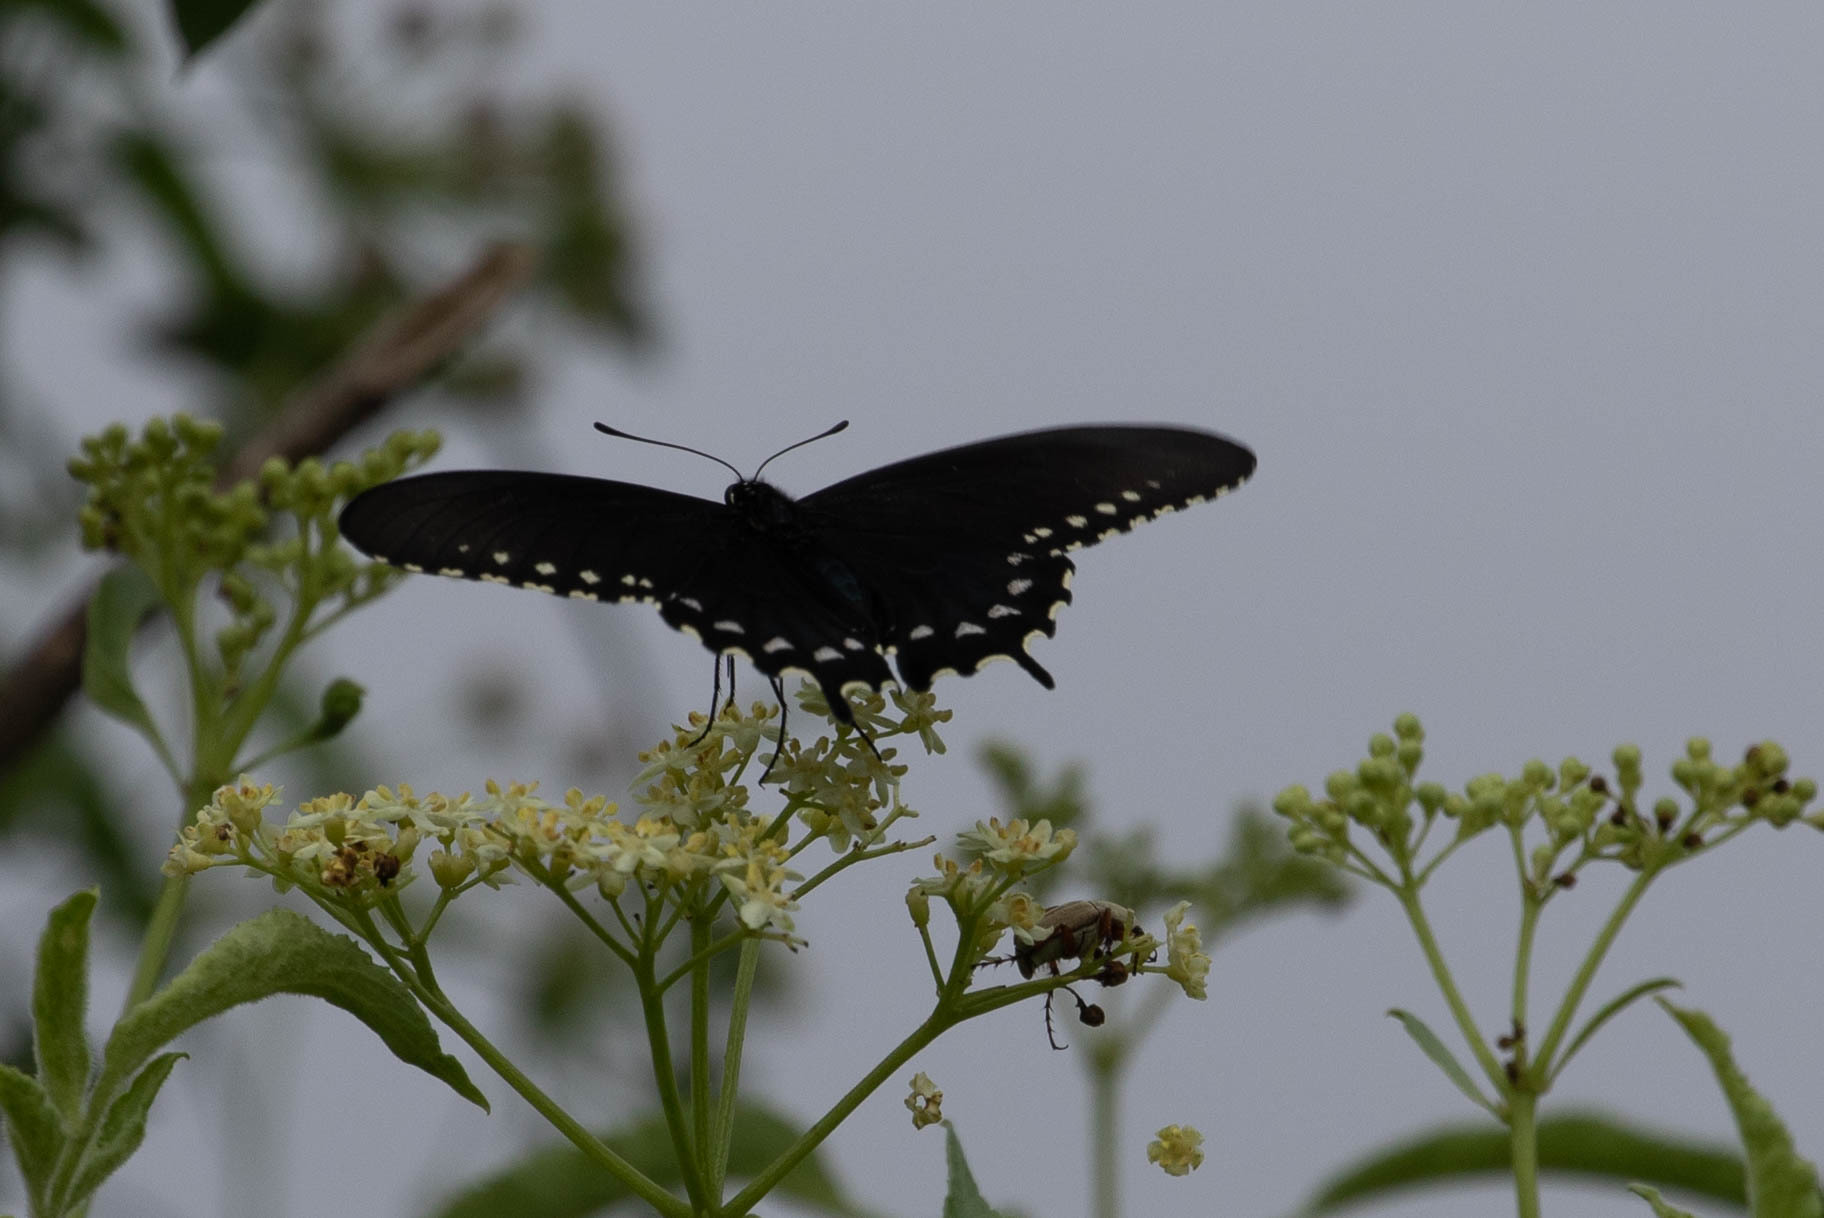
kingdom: Animalia
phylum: Arthropoda
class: Insecta
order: Lepidoptera
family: Papilionidae
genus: Battus
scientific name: Battus philenor
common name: Pipevine swallowtail
